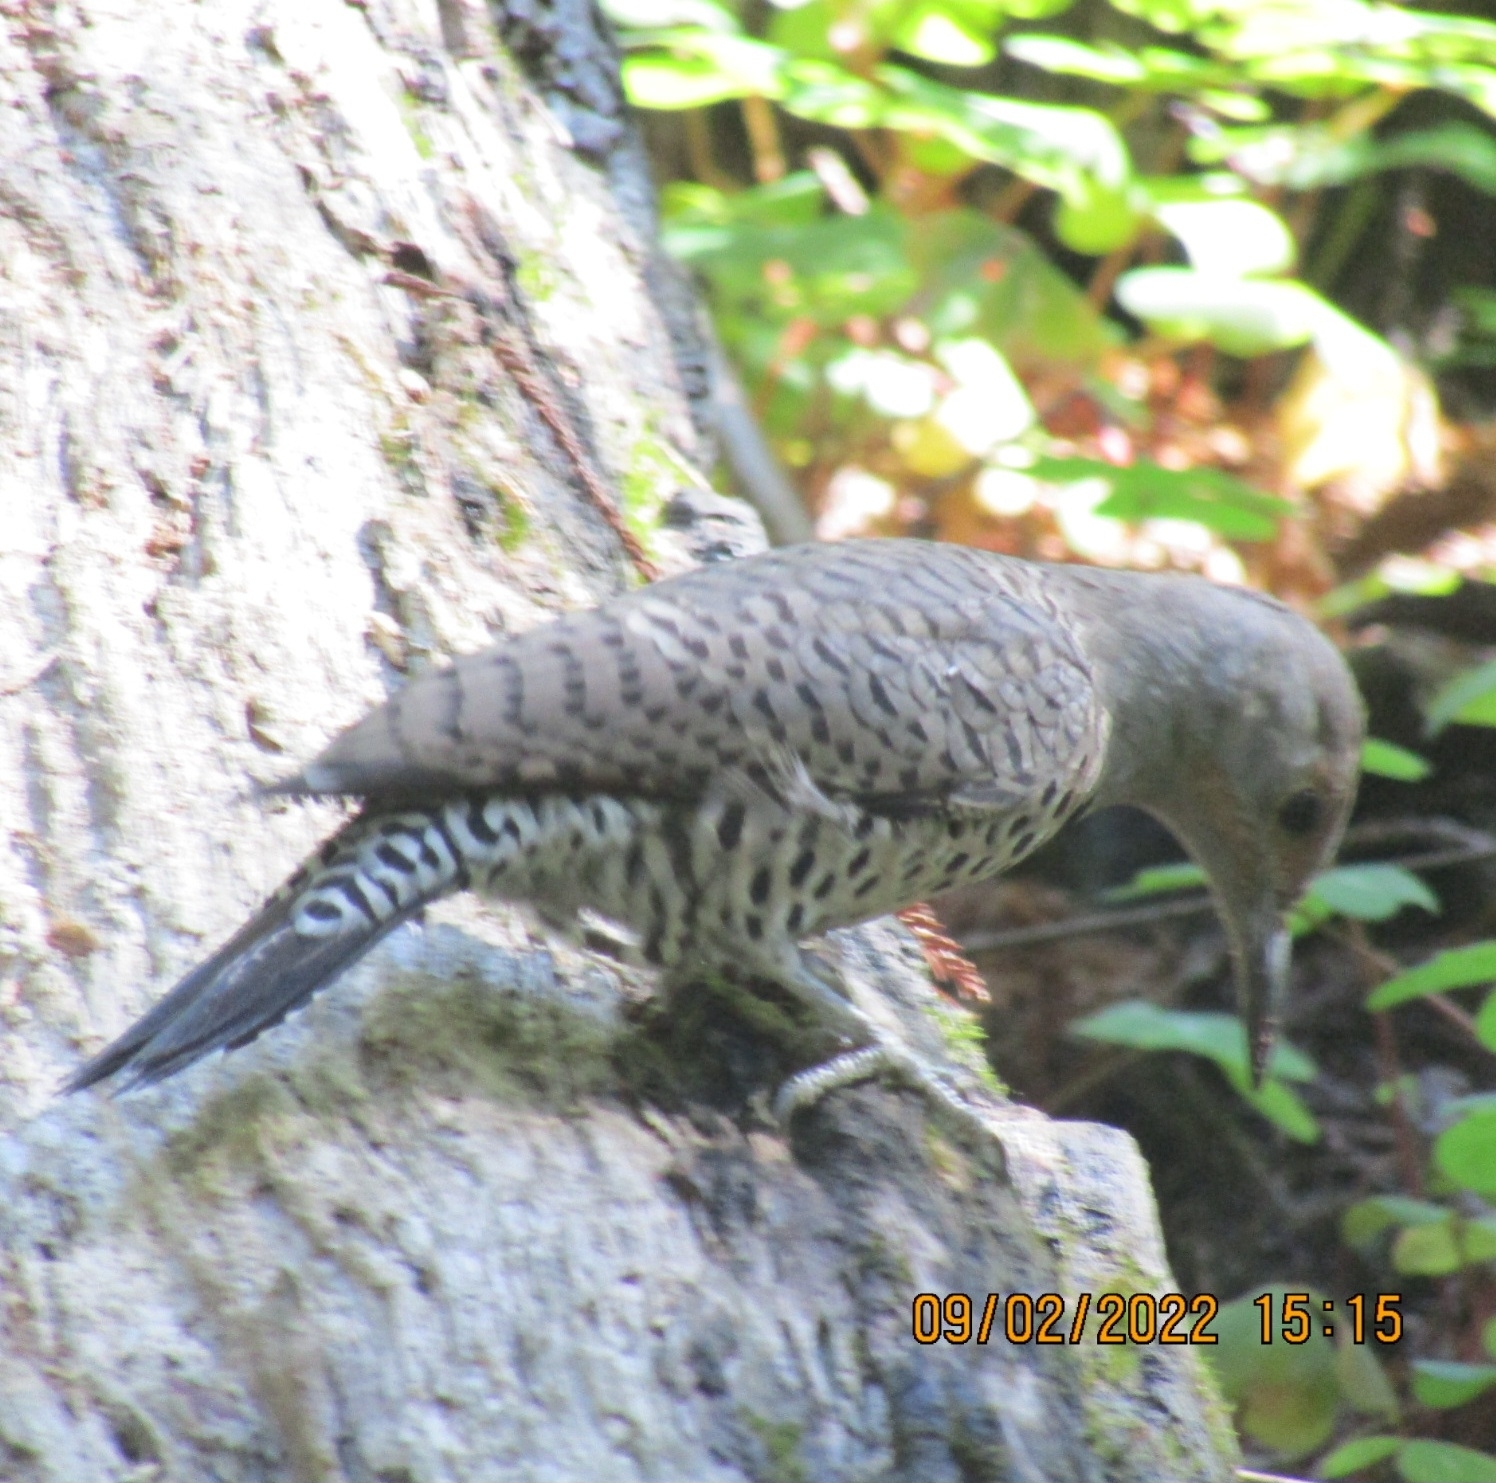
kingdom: Animalia
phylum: Chordata
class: Aves
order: Piciformes
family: Picidae
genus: Colaptes
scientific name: Colaptes auratus
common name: Northern flicker
